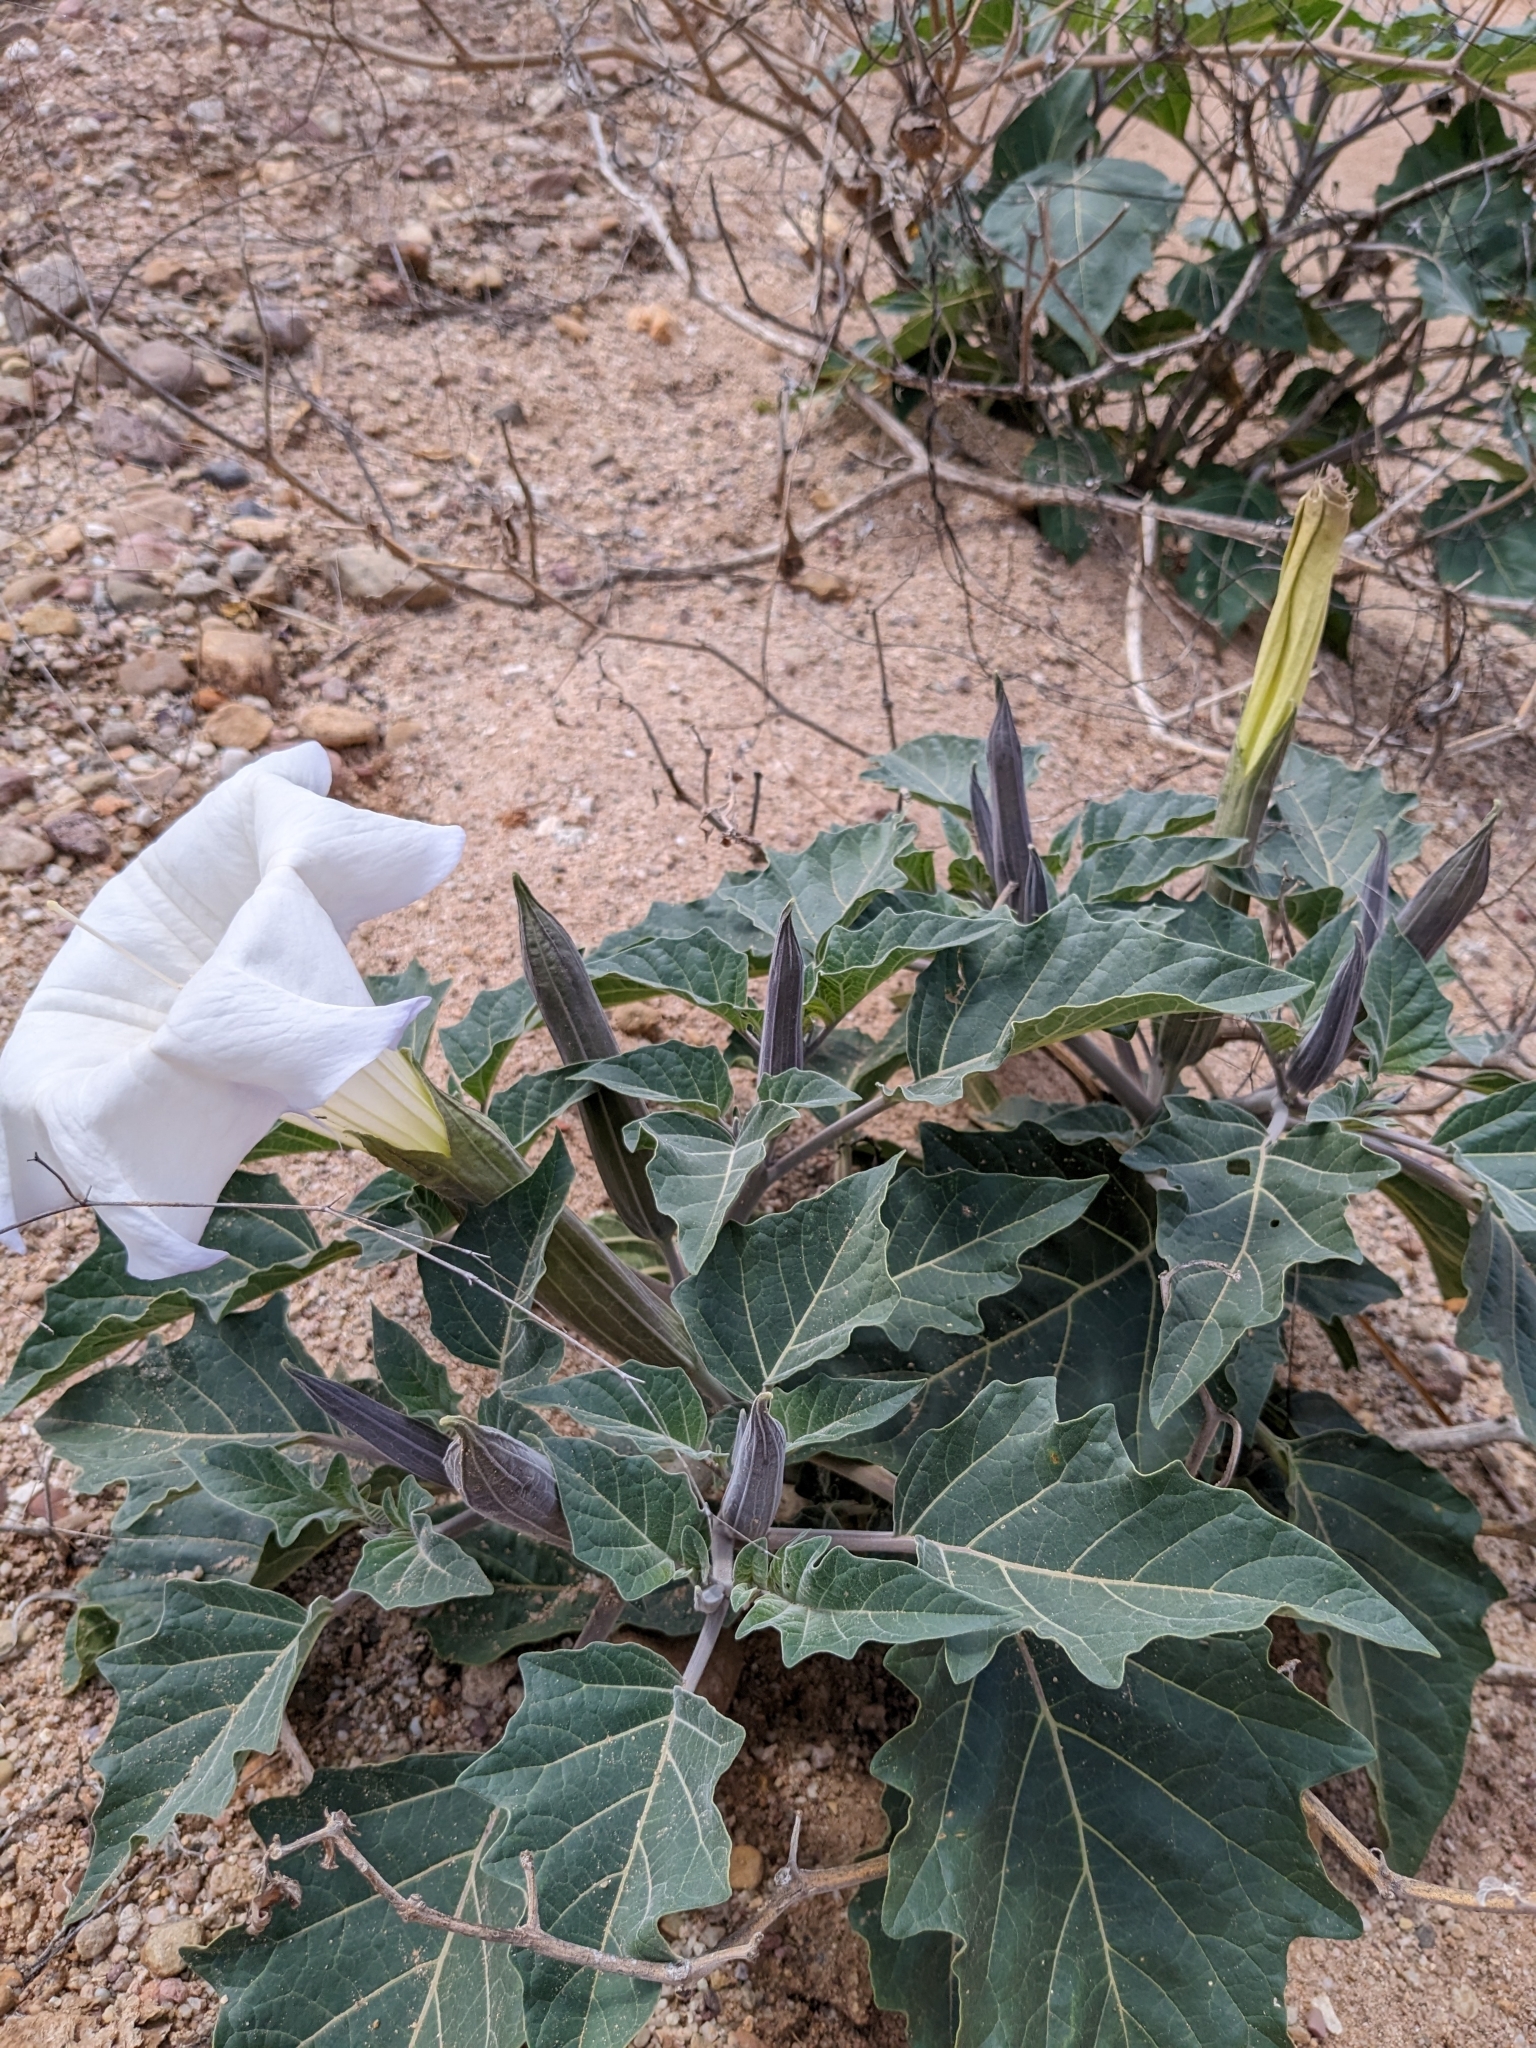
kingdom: Plantae
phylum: Tracheophyta
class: Magnoliopsida
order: Solanales
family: Solanaceae
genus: Datura
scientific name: Datura wrightii
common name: Sacred thorn-apple
